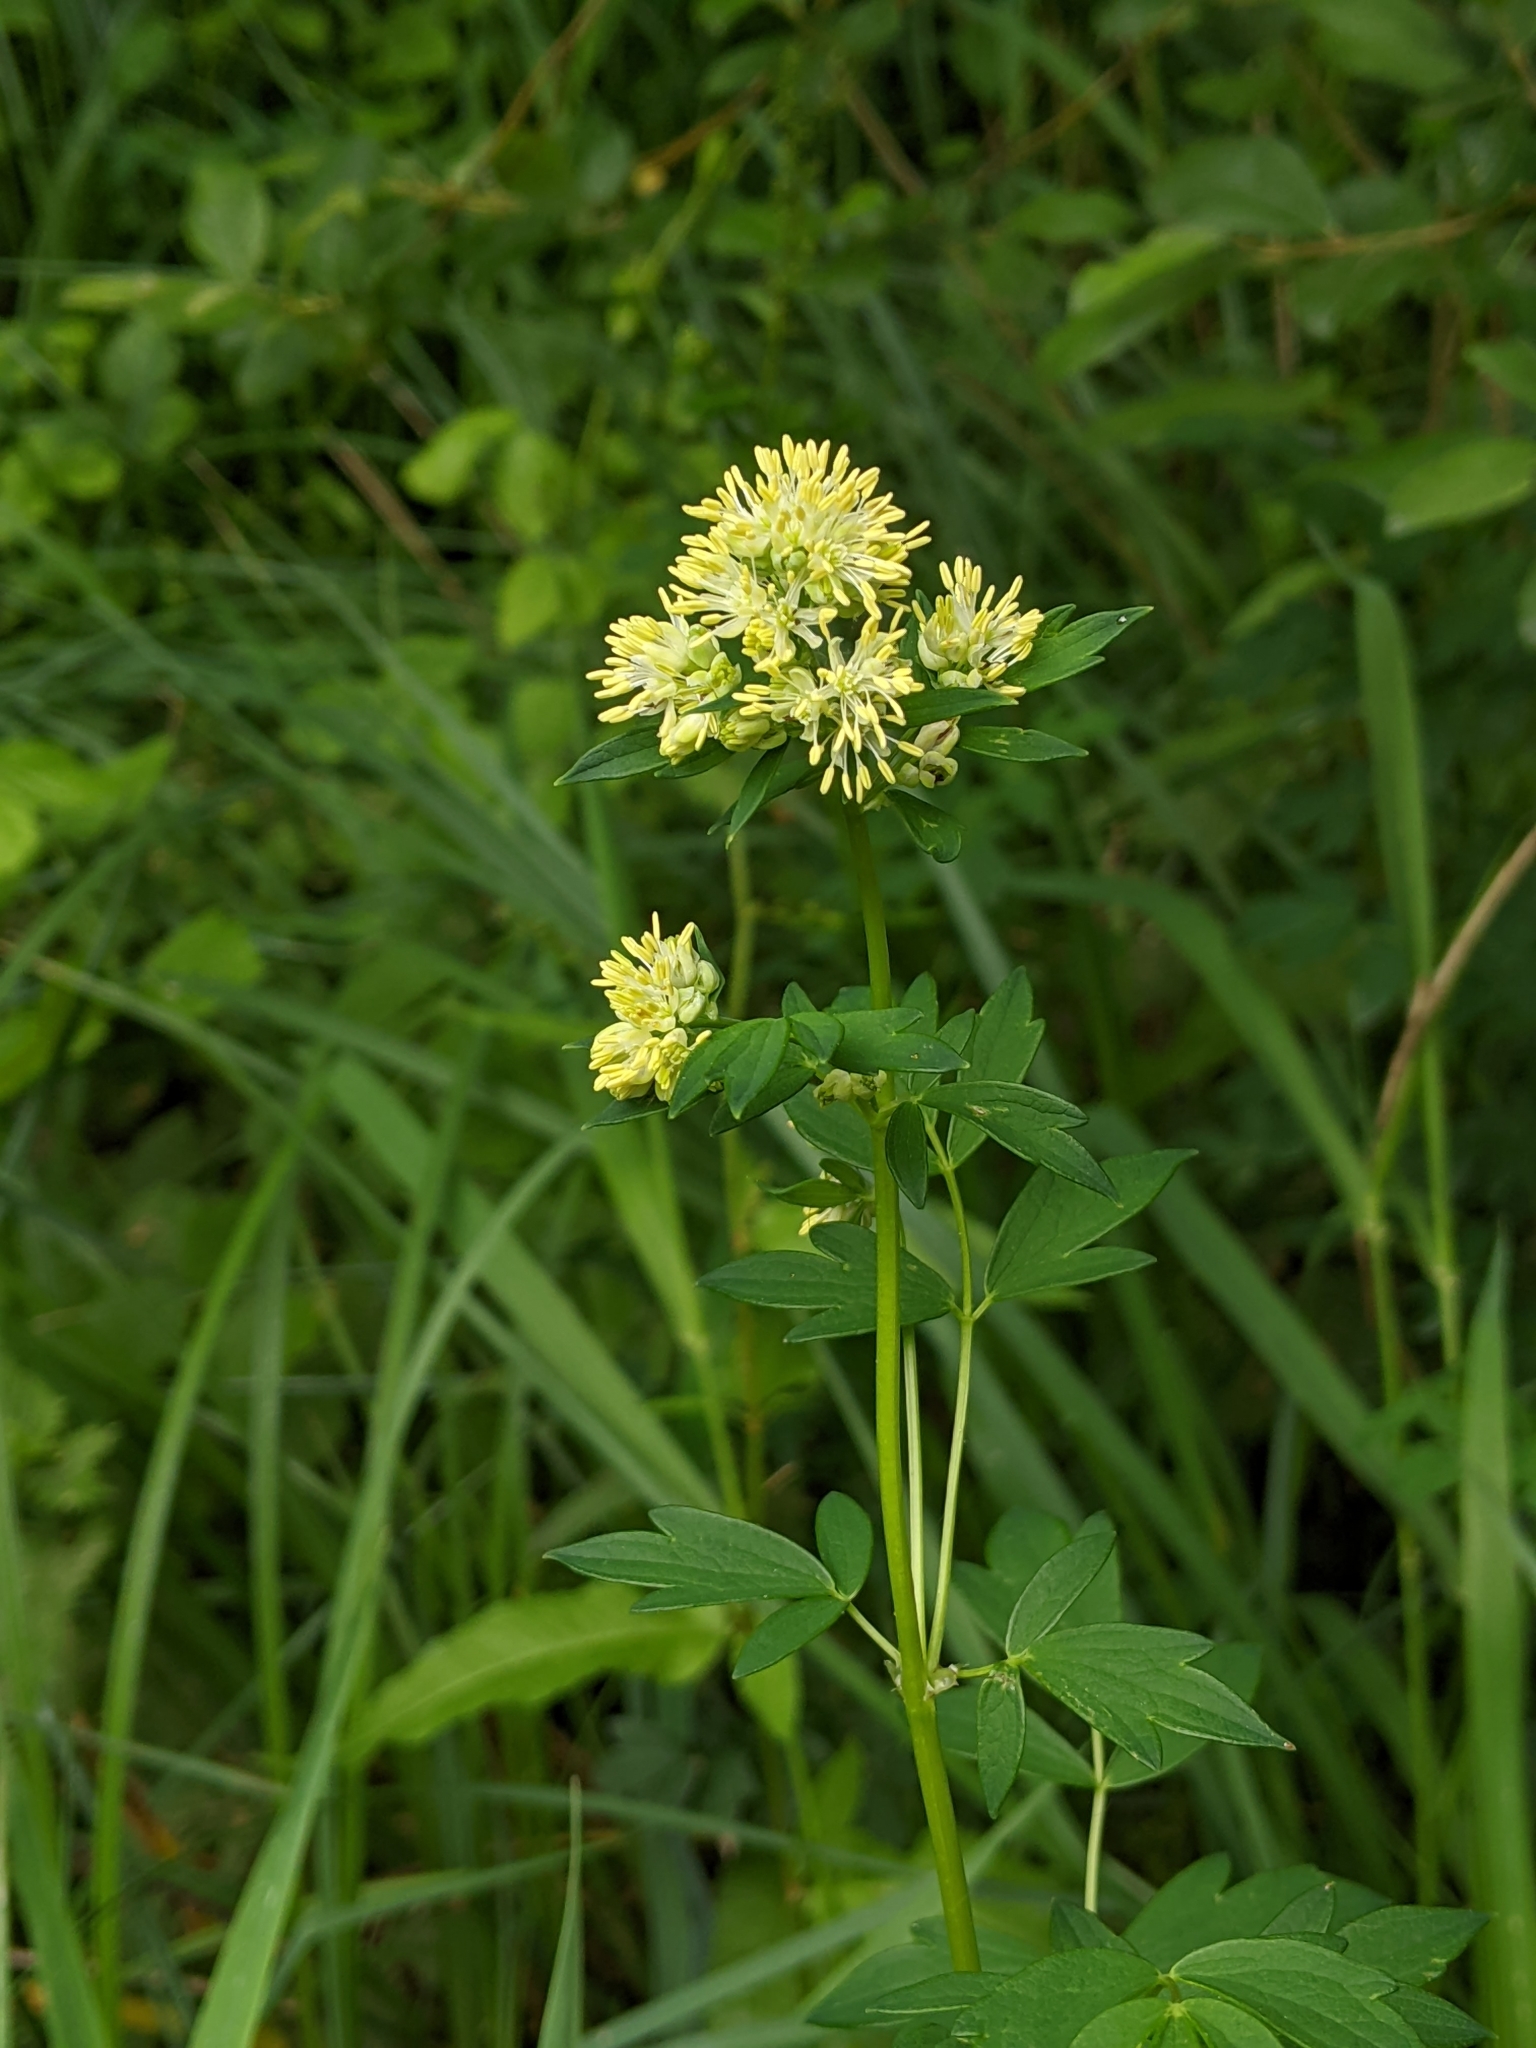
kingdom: Plantae
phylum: Tracheophyta
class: Magnoliopsida
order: Ranunculales
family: Ranunculaceae
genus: Thalictrum
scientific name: Thalictrum flavum
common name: Common meadow-rue
